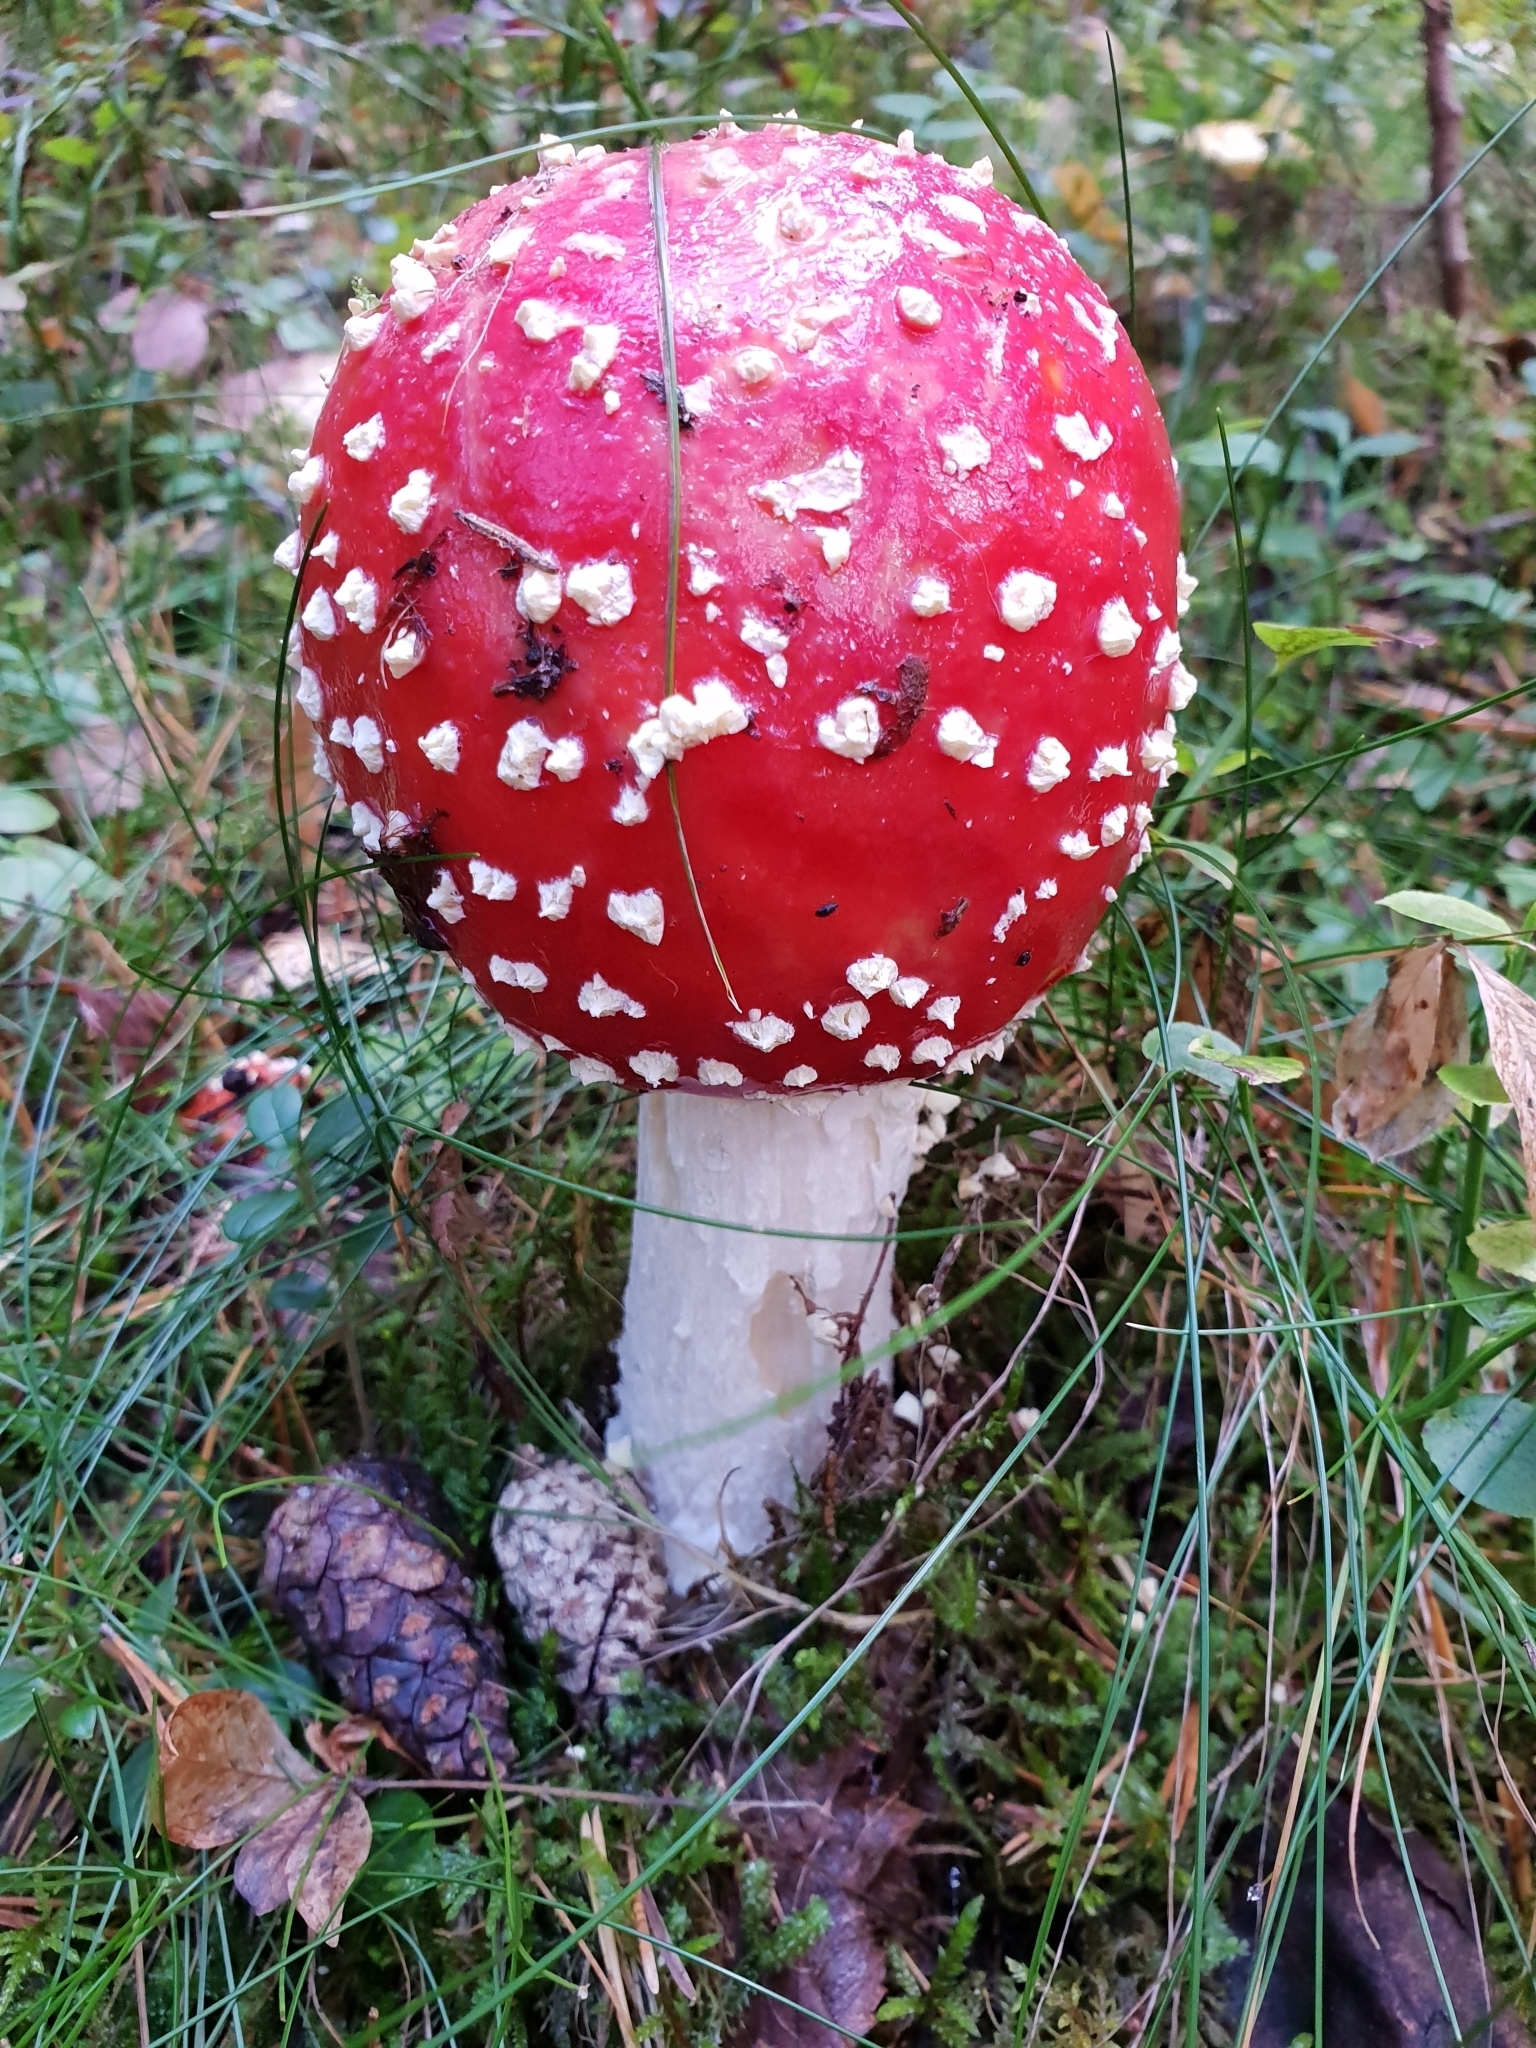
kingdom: Fungi
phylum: Basidiomycota
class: Agaricomycetes
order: Agaricales
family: Amanitaceae
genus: Amanita
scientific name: Amanita muscaria
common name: Fly agaric
